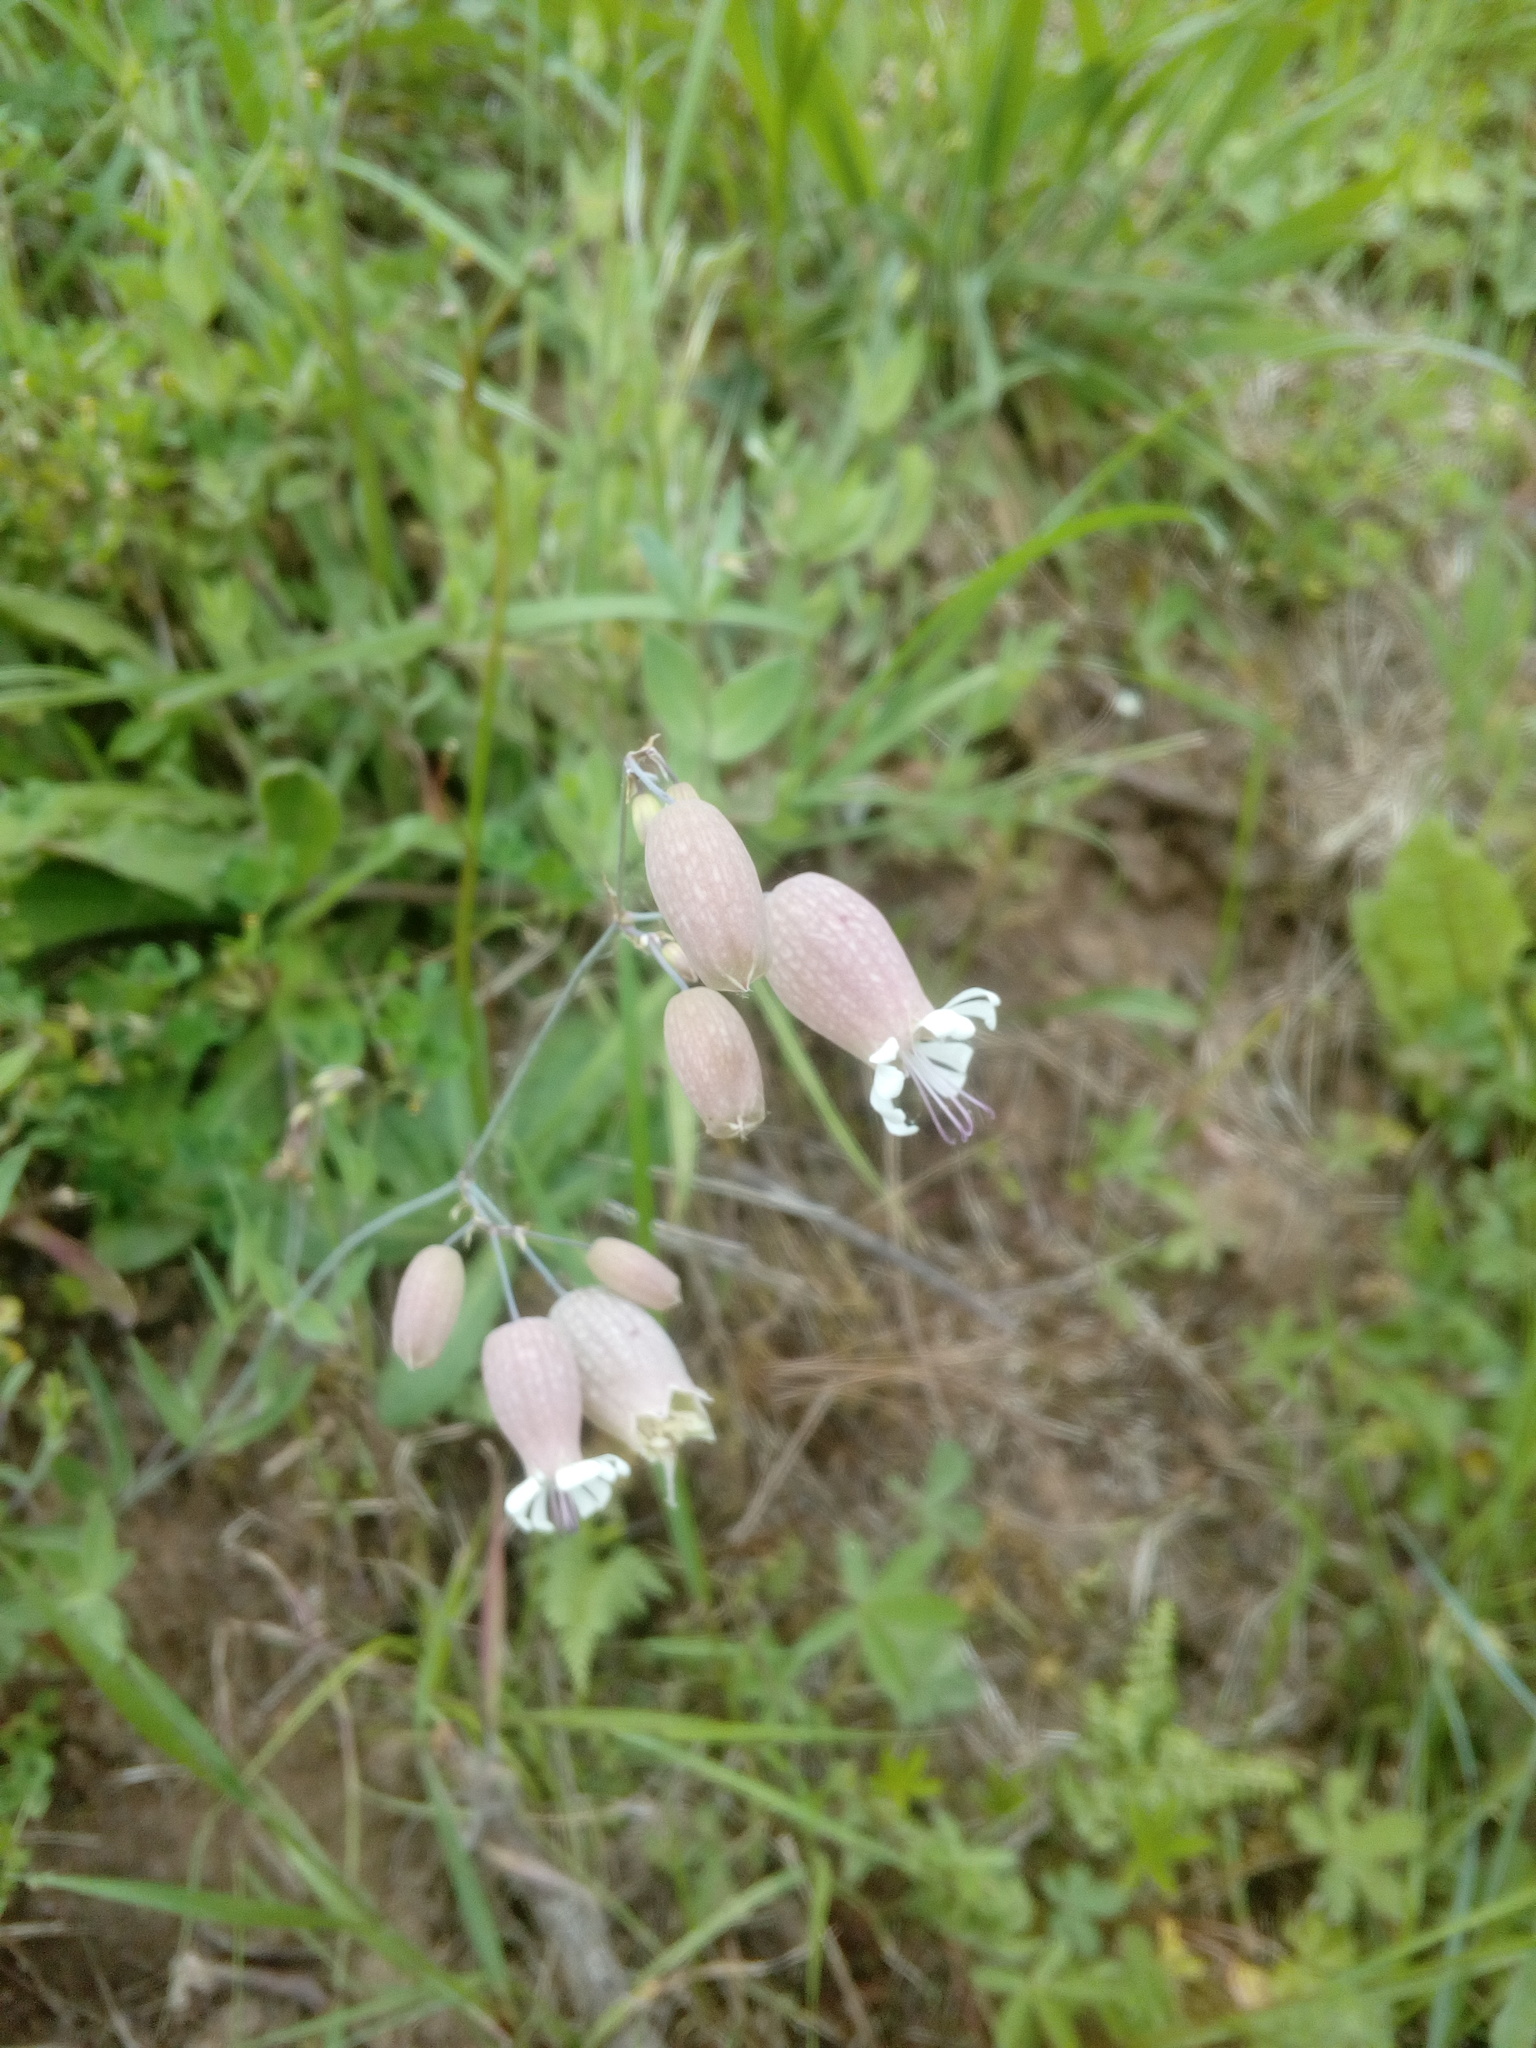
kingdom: Plantae
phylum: Tracheophyta
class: Magnoliopsida
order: Caryophyllales
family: Caryophyllaceae
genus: Silene
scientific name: Silene vulgaris
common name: Bladder campion
